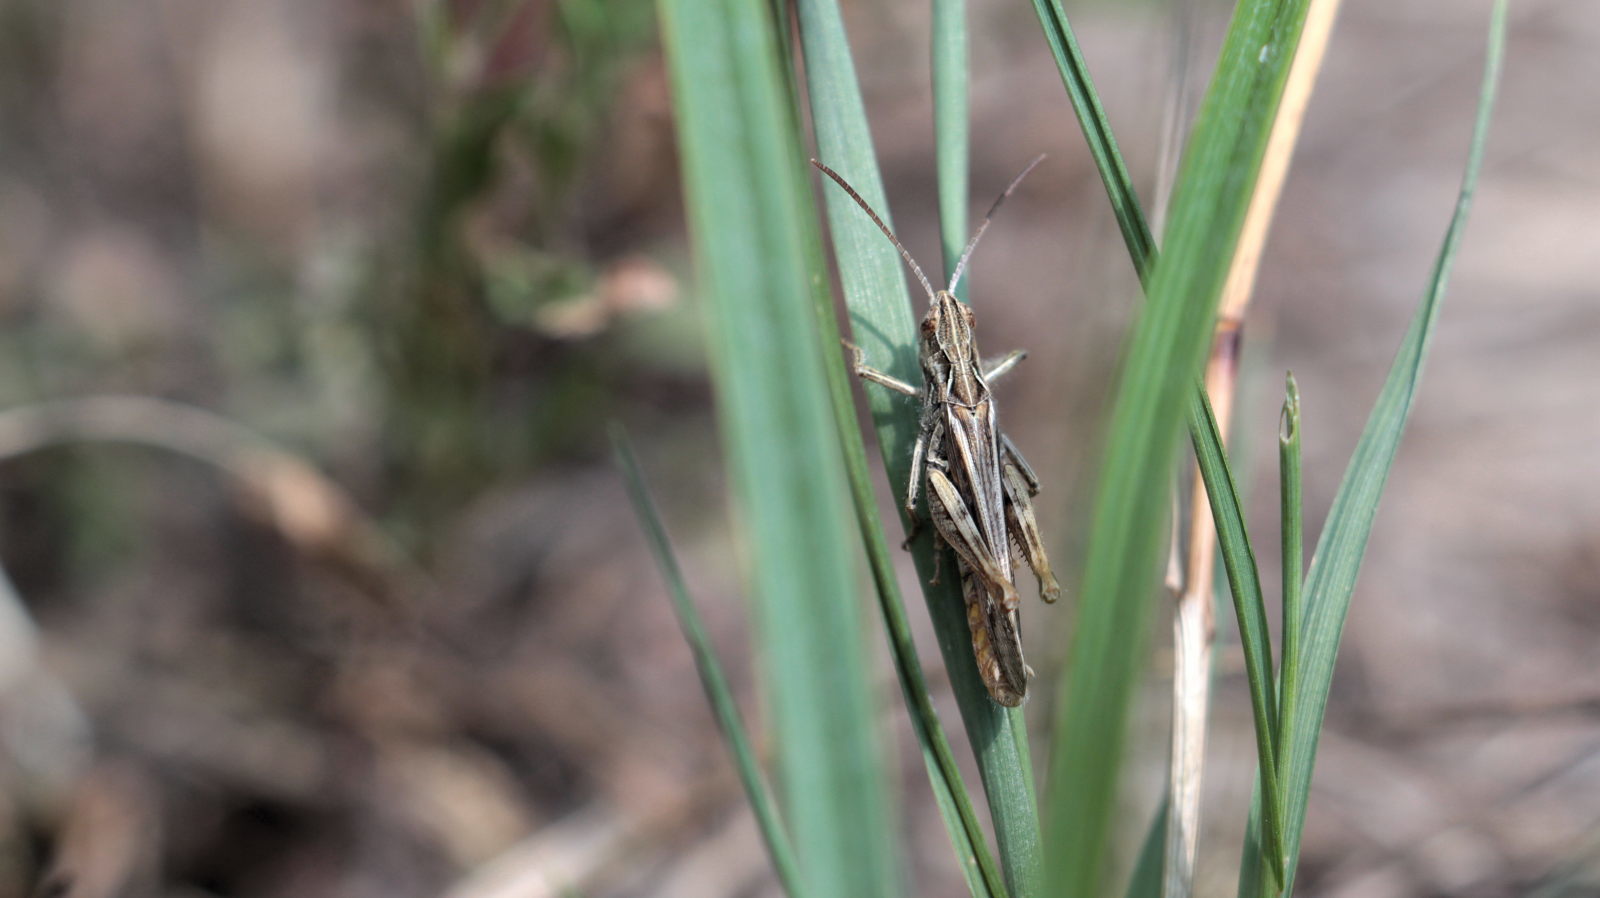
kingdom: Animalia
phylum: Arthropoda
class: Insecta
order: Orthoptera
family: Acrididae
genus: Chorthippus
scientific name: Chorthippus mollis
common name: Lesser field grasshopper
